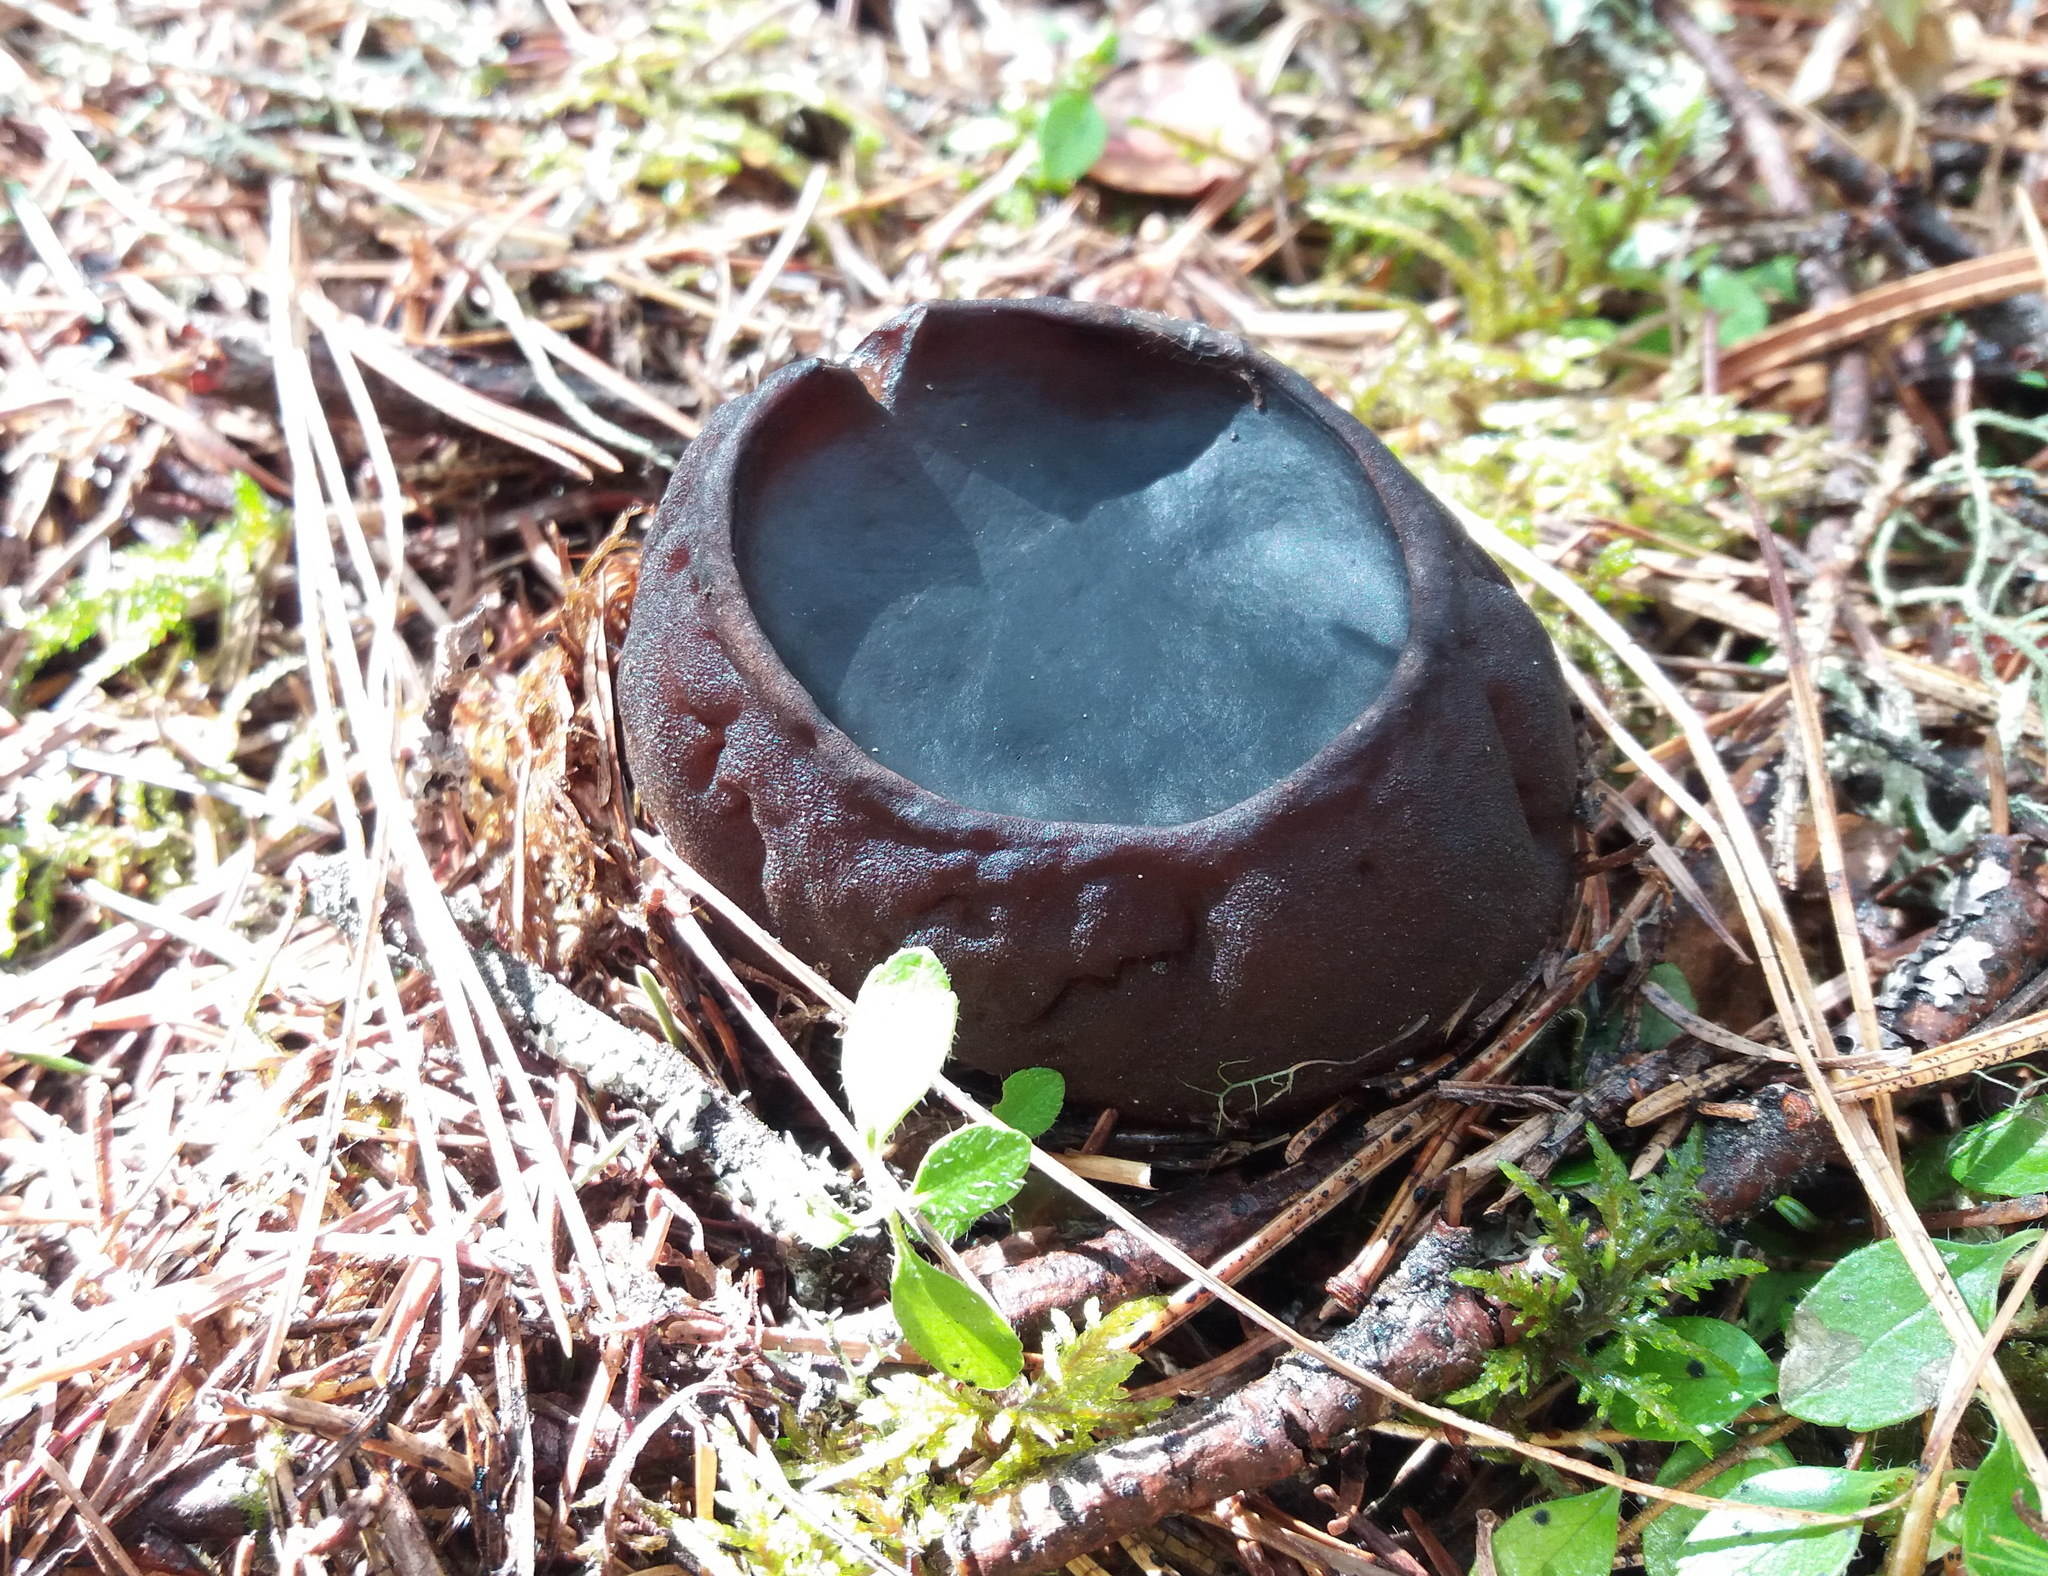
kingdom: Fungi
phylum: Ascomycota
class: Pezizomycetes
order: Pezizales
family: Sarcosomataceae
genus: Sarcosoma
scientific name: Sarcosoma globosum
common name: Charred-pancake cup
